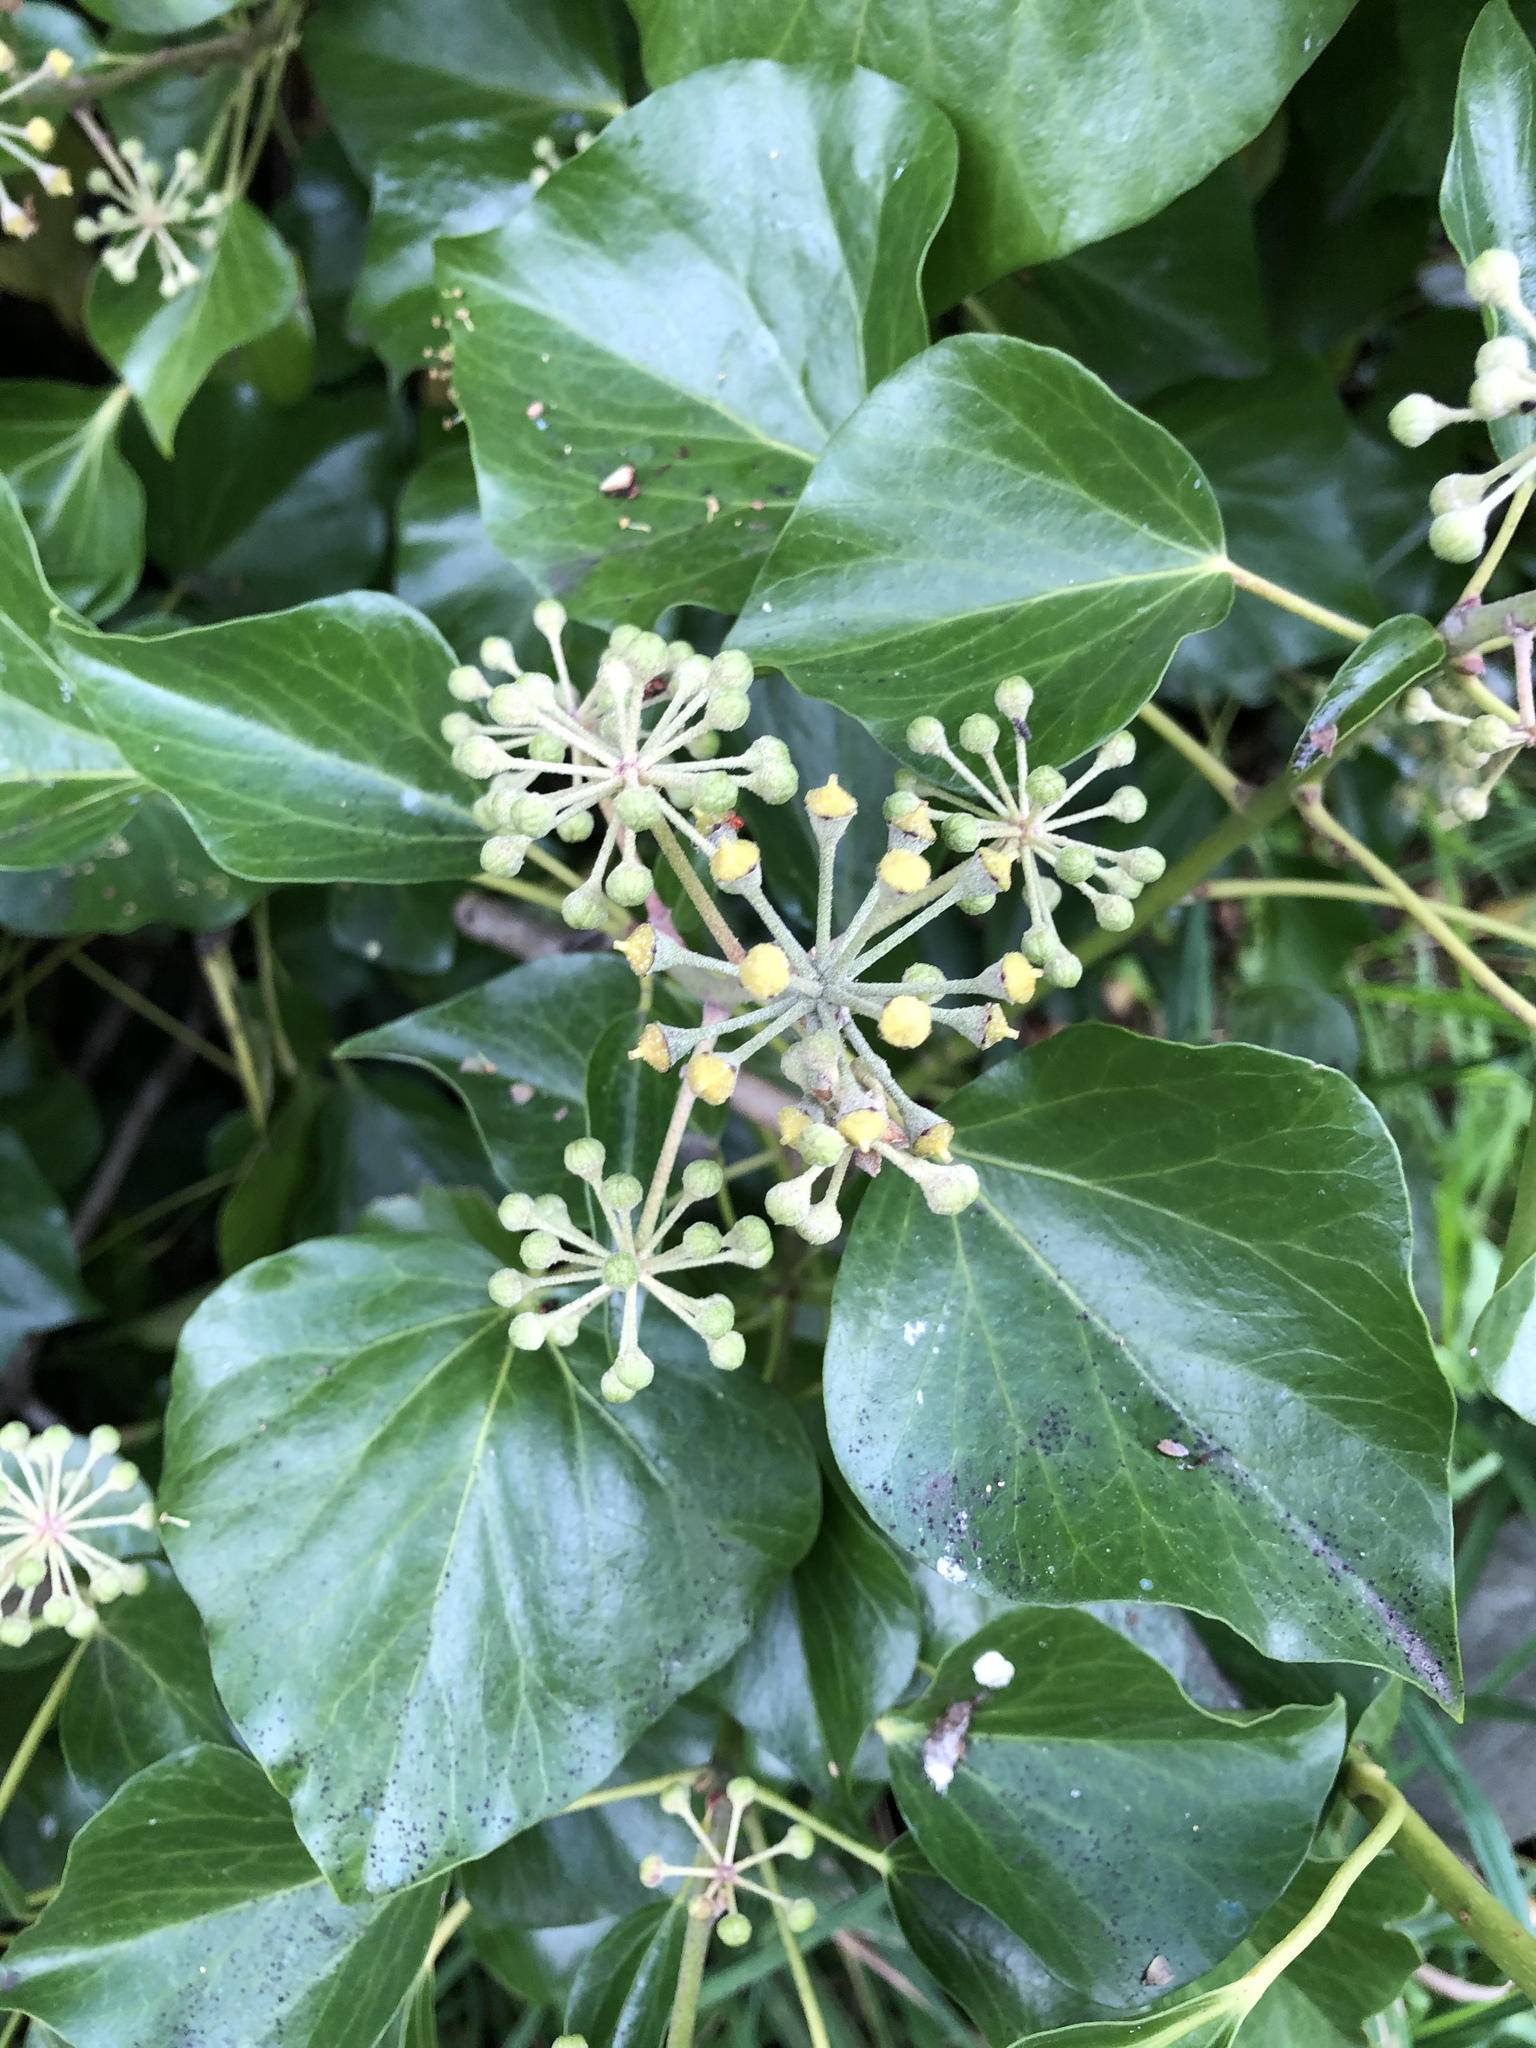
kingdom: Plantae
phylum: Tracheophyta
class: Magnoliopsida
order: Apiales
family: Araliaceae
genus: Hedera
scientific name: Hedera helix
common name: Ivy
